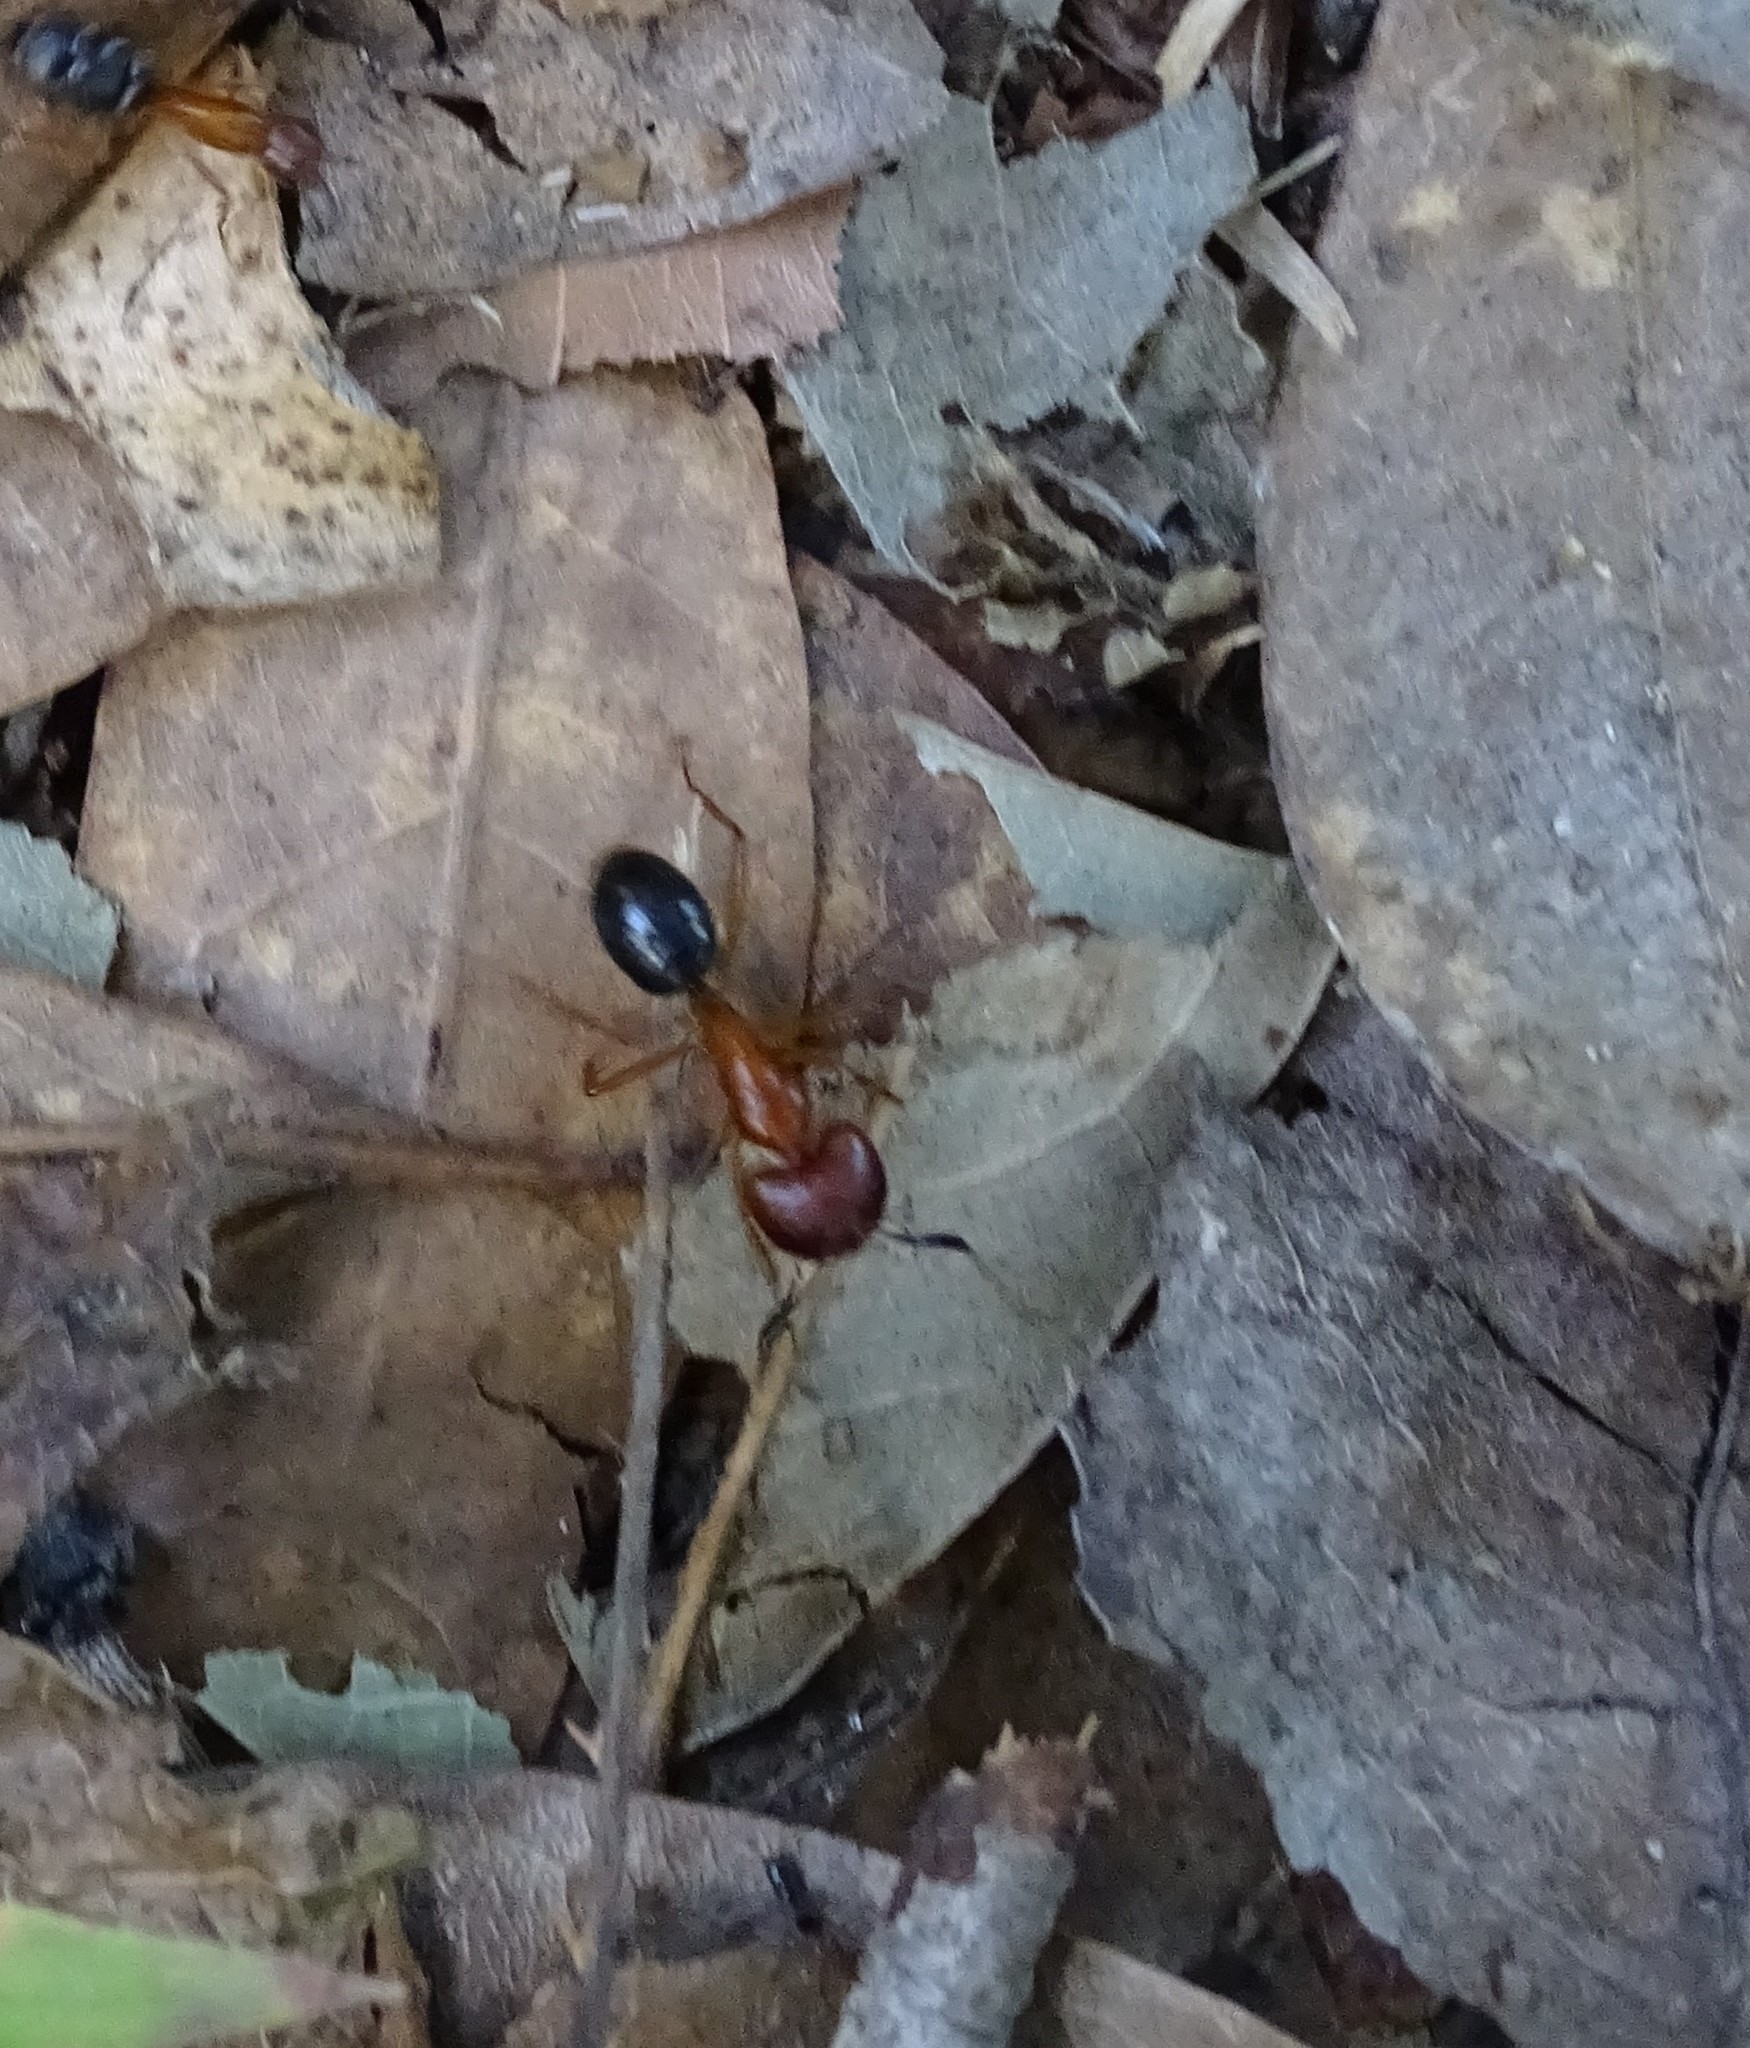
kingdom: Animalia
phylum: Arthropoda
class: Insecta
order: Hymenoptera
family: Formicidae
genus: Camponotus
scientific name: Camponotus floridanus
